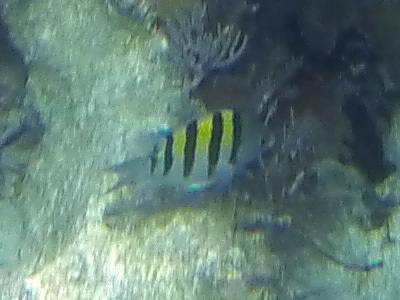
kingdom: Animalia
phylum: Chordata
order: Perciformes
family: Pomacentridae
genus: Abudefduf
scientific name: Abudefduf saxatilis
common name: Sergeant major
